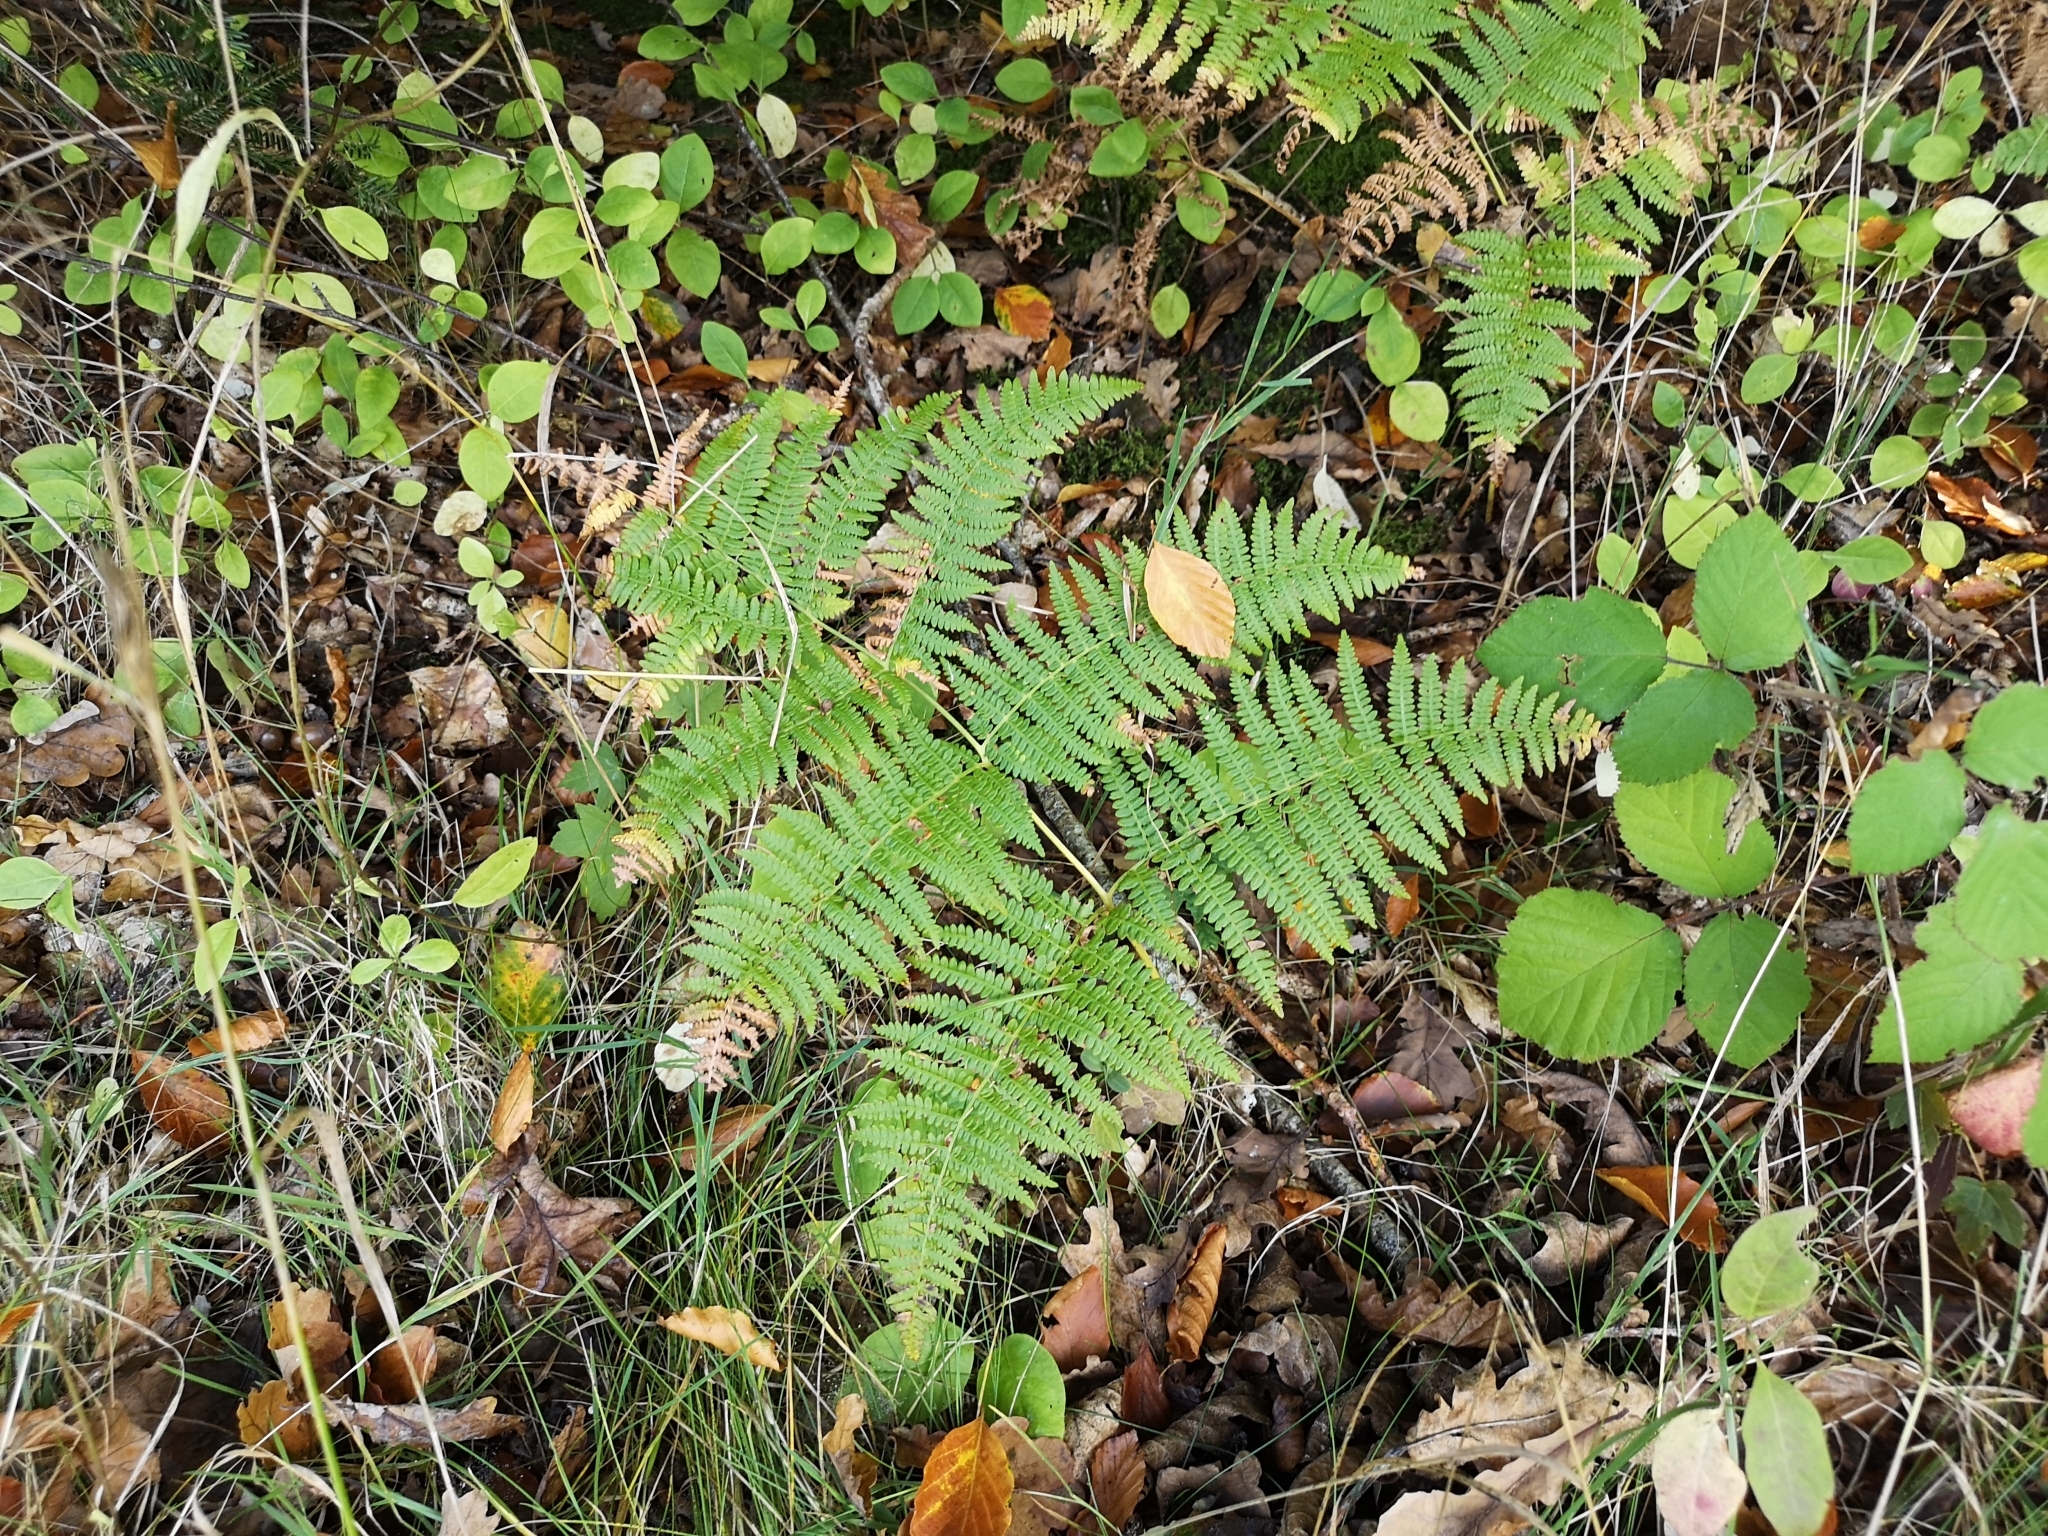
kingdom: Plantae
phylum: Tracheophyta
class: Polypodiopsida
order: Polypodiales
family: Dennstaedtiaceae
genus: Pteridium
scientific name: Pteridium aquilinum
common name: Bracken
